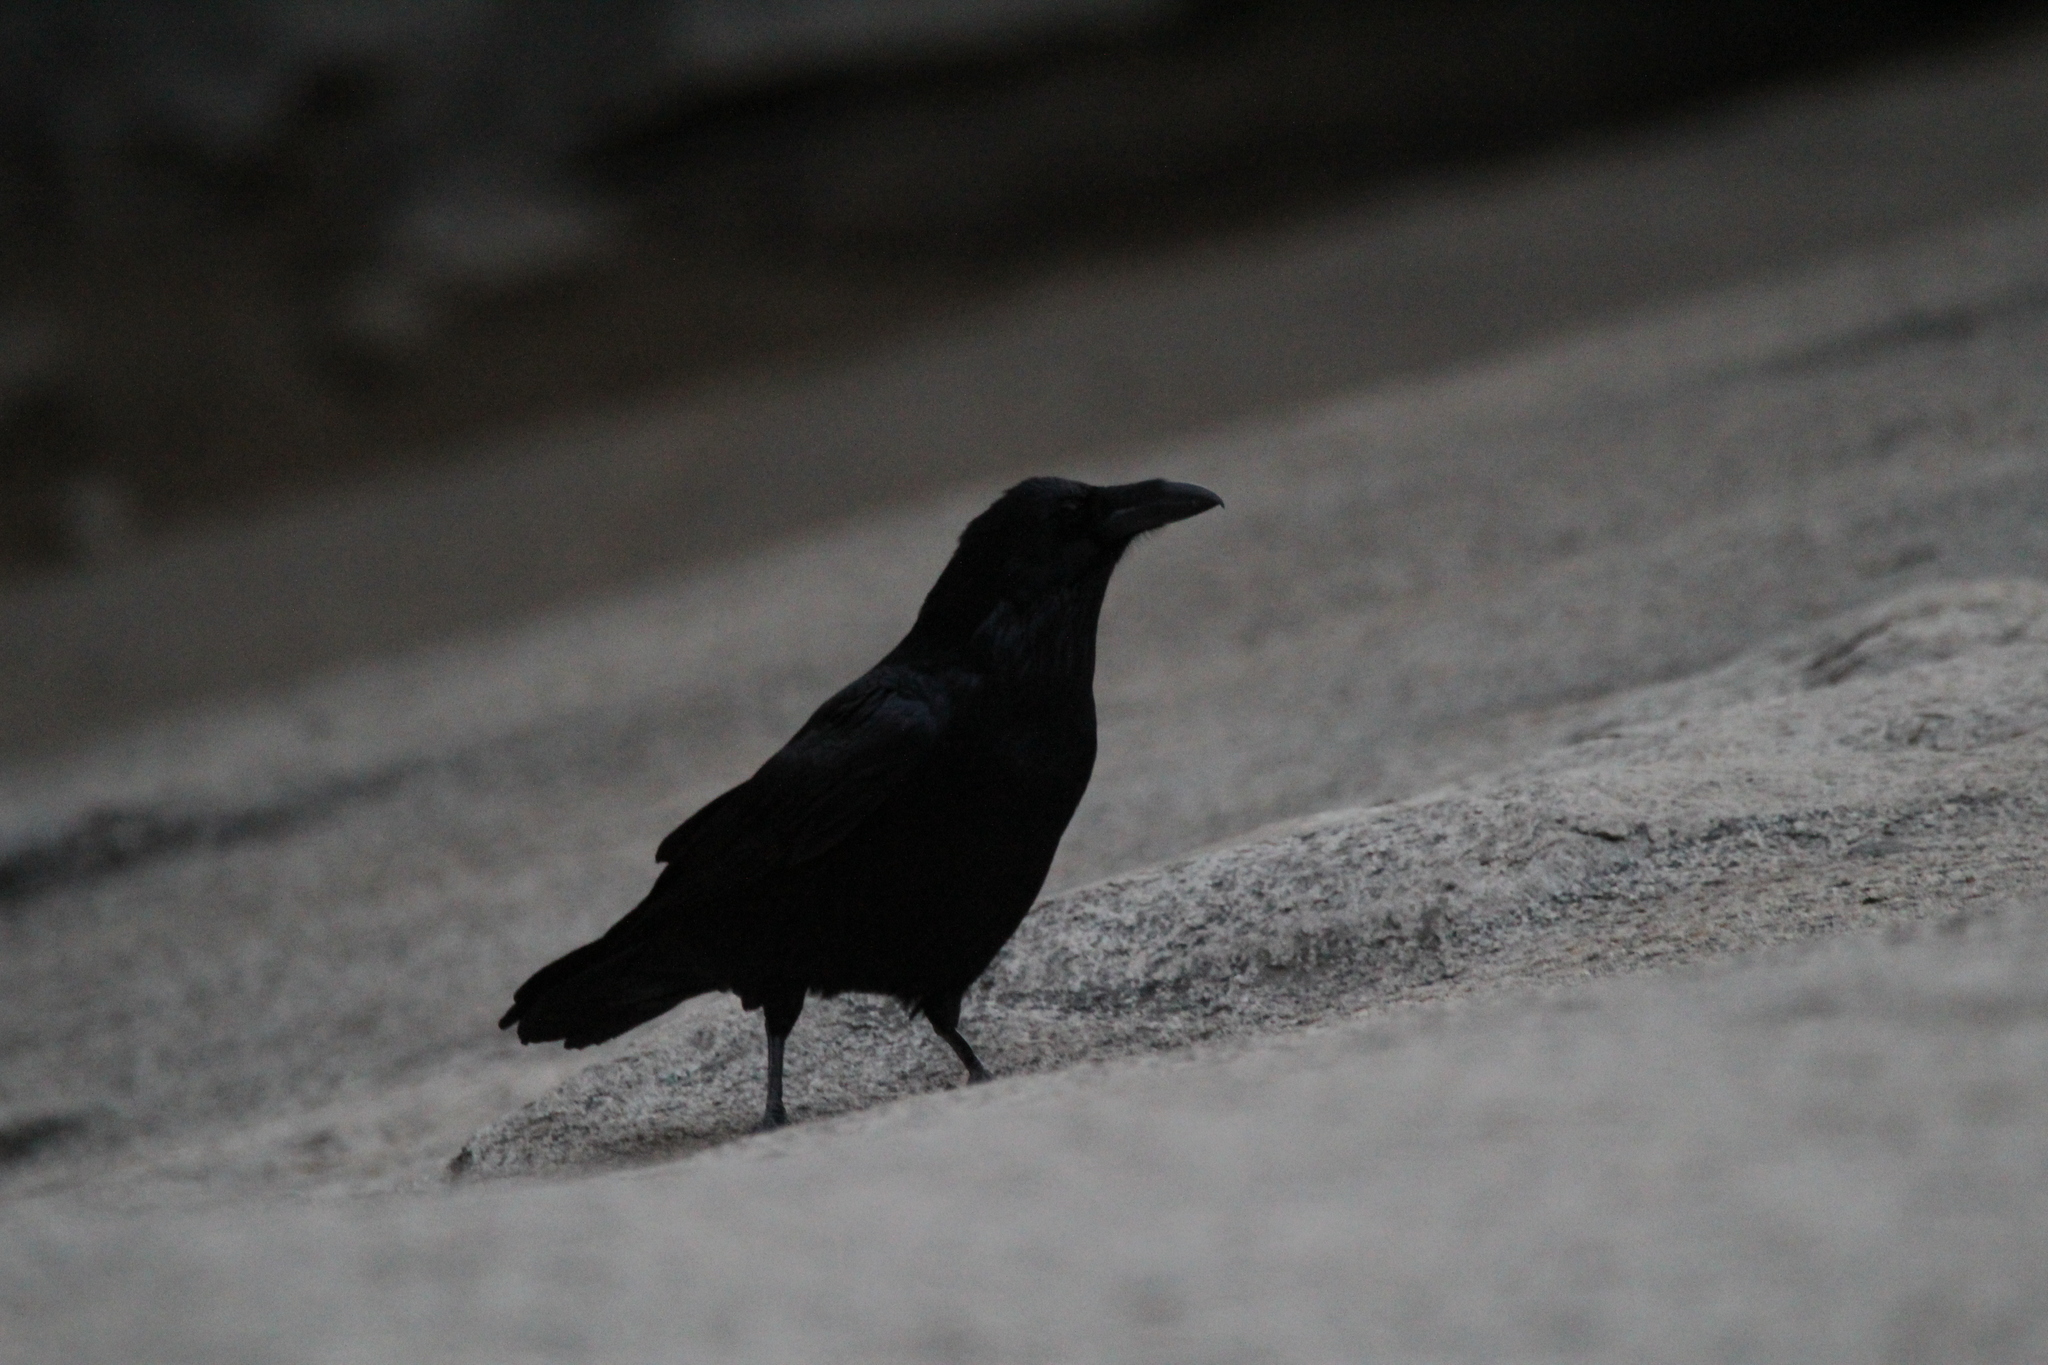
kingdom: Animalia
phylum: Chordata
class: Aves
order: Passeriformes
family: Corvidae
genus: Corvus
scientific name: Corvus corax
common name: Common raven
